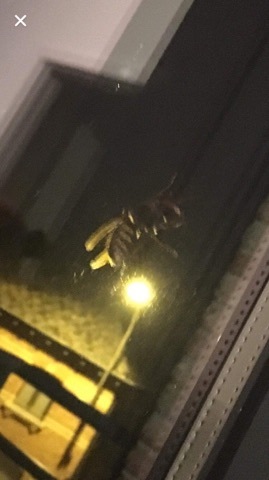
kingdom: Animalia
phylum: Arthropoda
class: Insecta
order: Hymenoptera
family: Vespidae
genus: Vespa
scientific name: Vespa crabro
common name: Hornet
